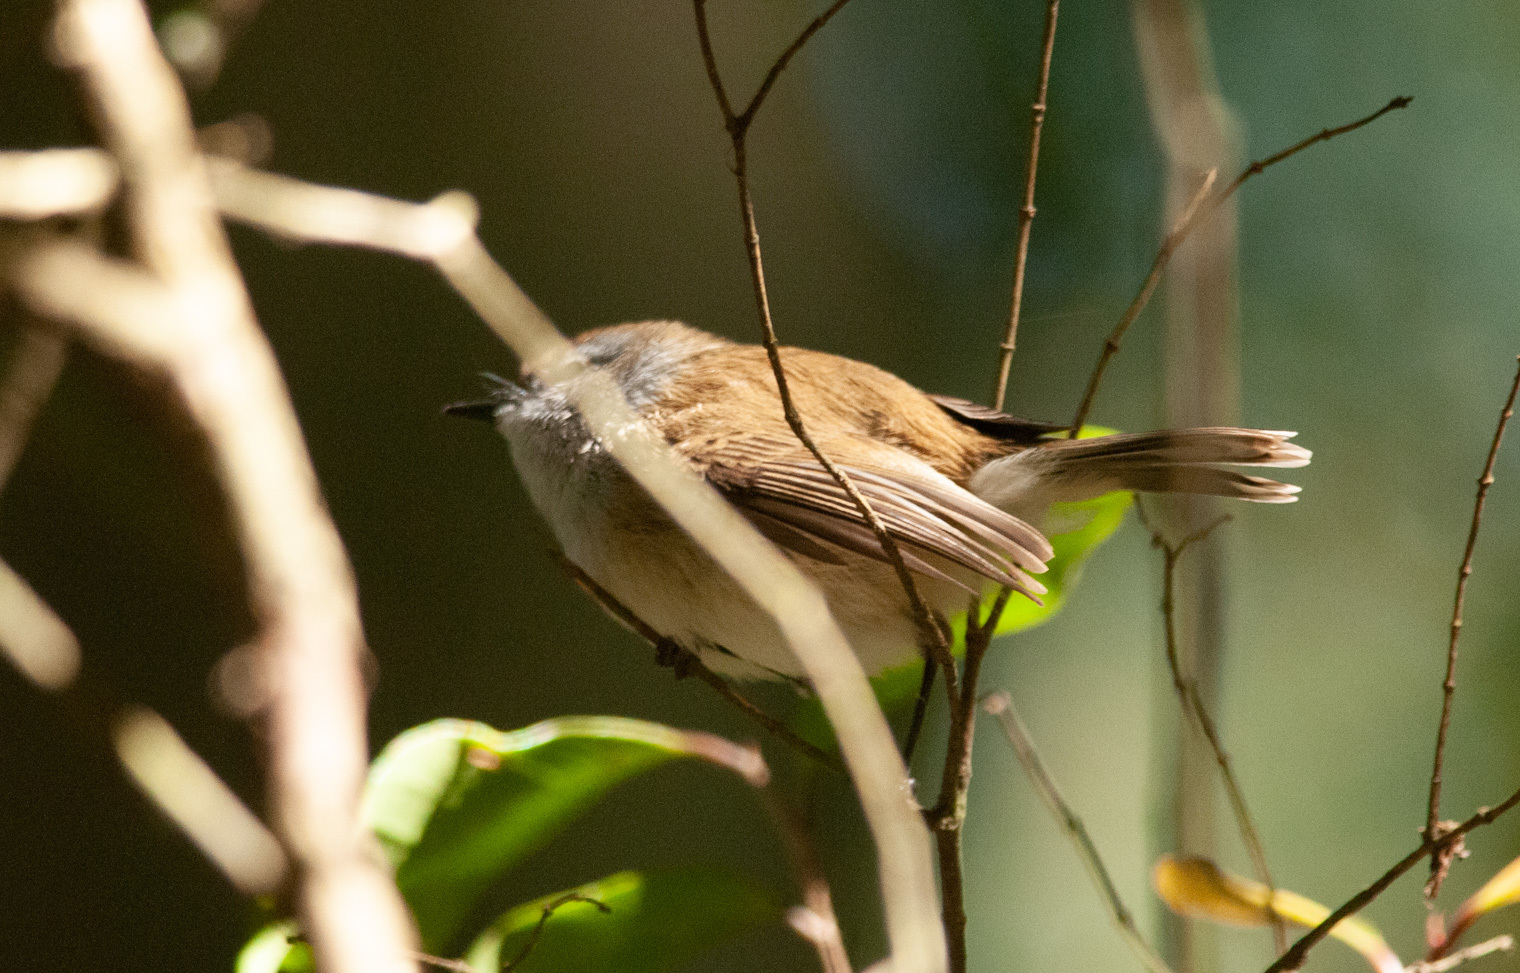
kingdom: Animalia
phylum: Chordata
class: Aves
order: Passeriformes
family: Acanthizidae
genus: Gerygone
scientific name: Gerygone mouki
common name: Brown gerygone
